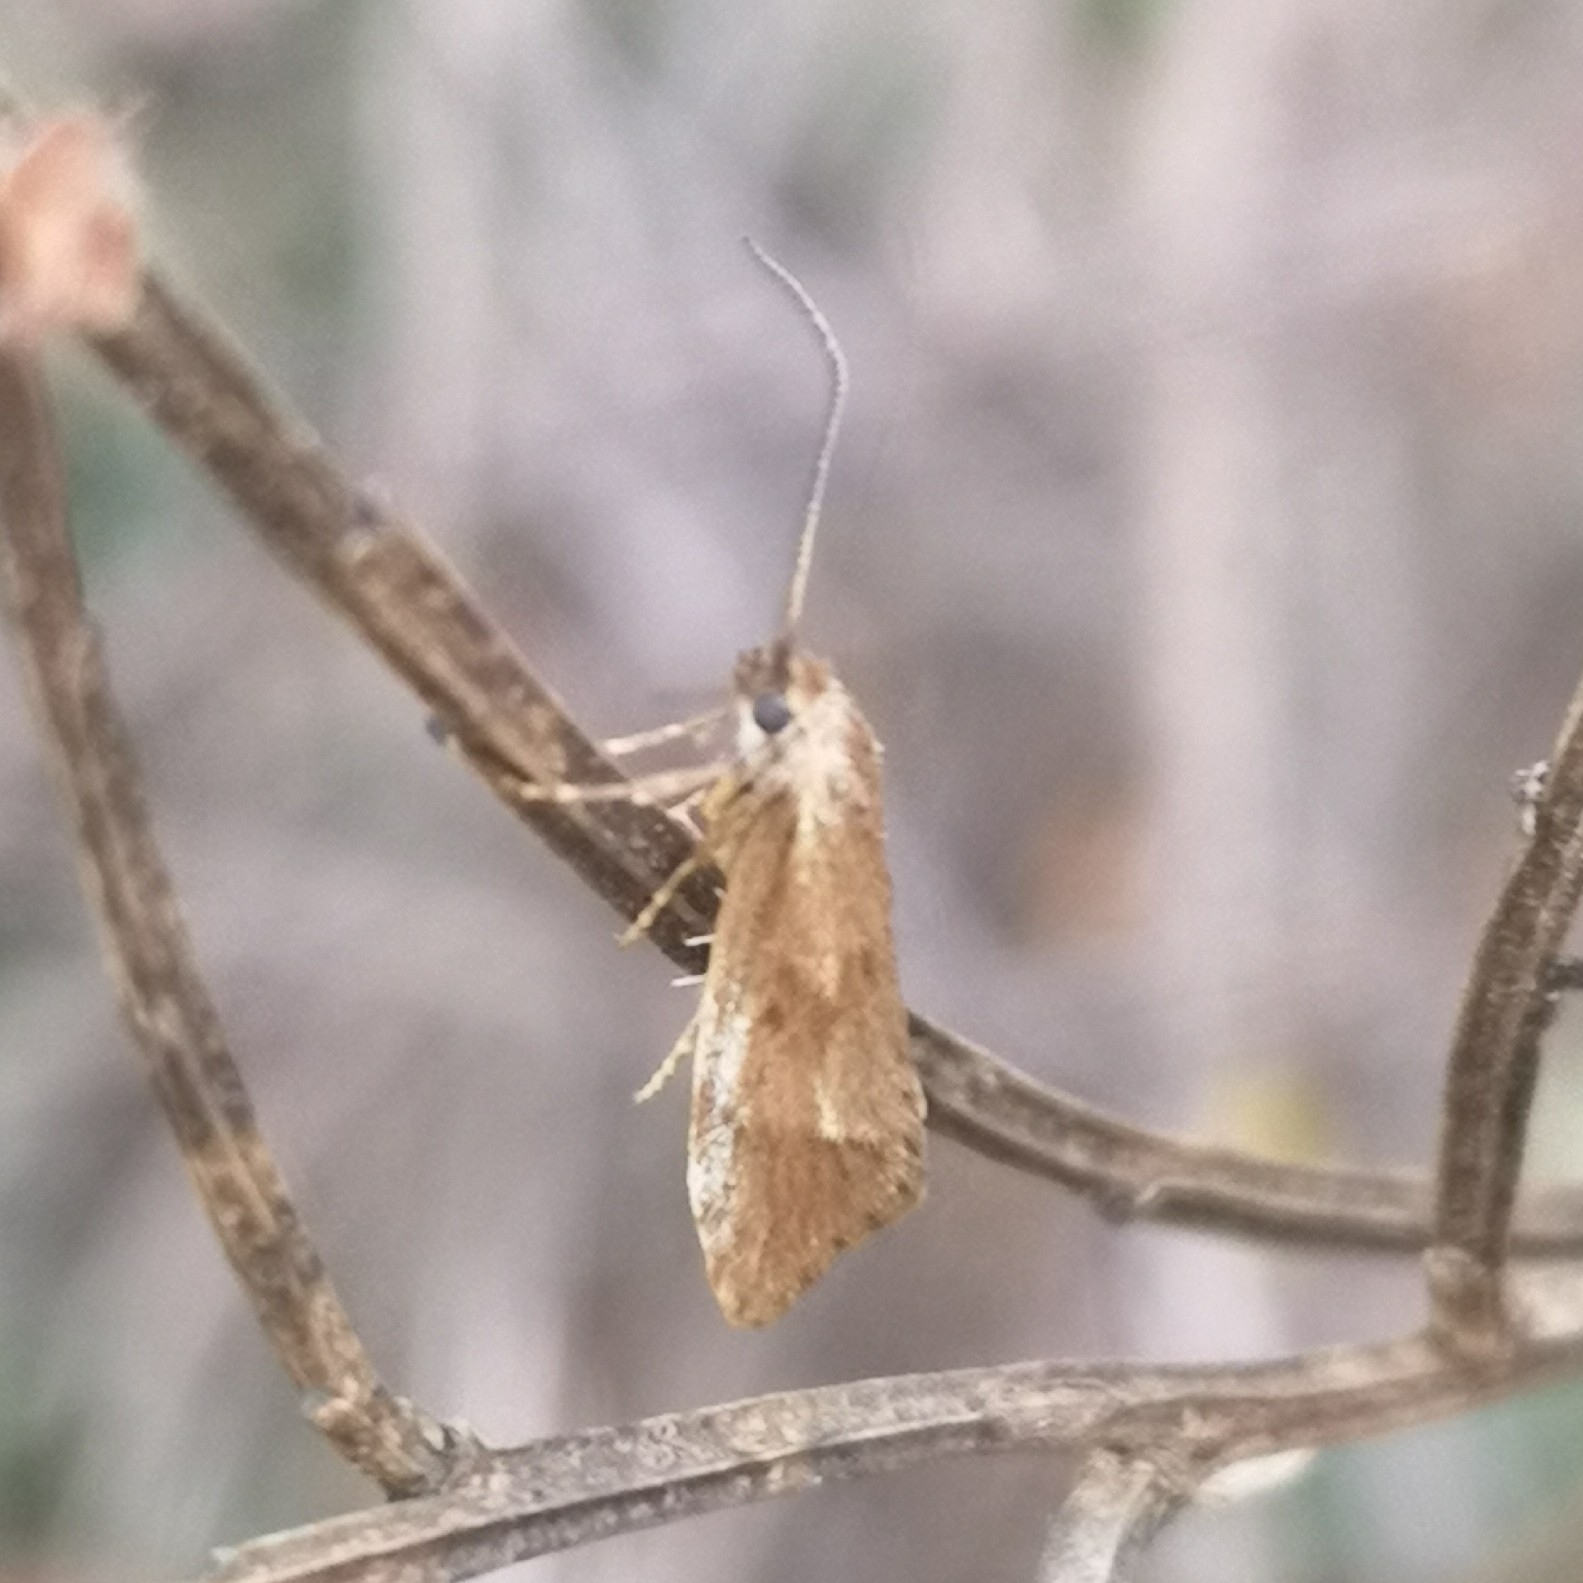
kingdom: Animalia
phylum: Arthropoda
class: Insecta
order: Lepidoptera
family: Lypusidae
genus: Diurnea
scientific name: Diurnea lipsiella
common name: November tubic
